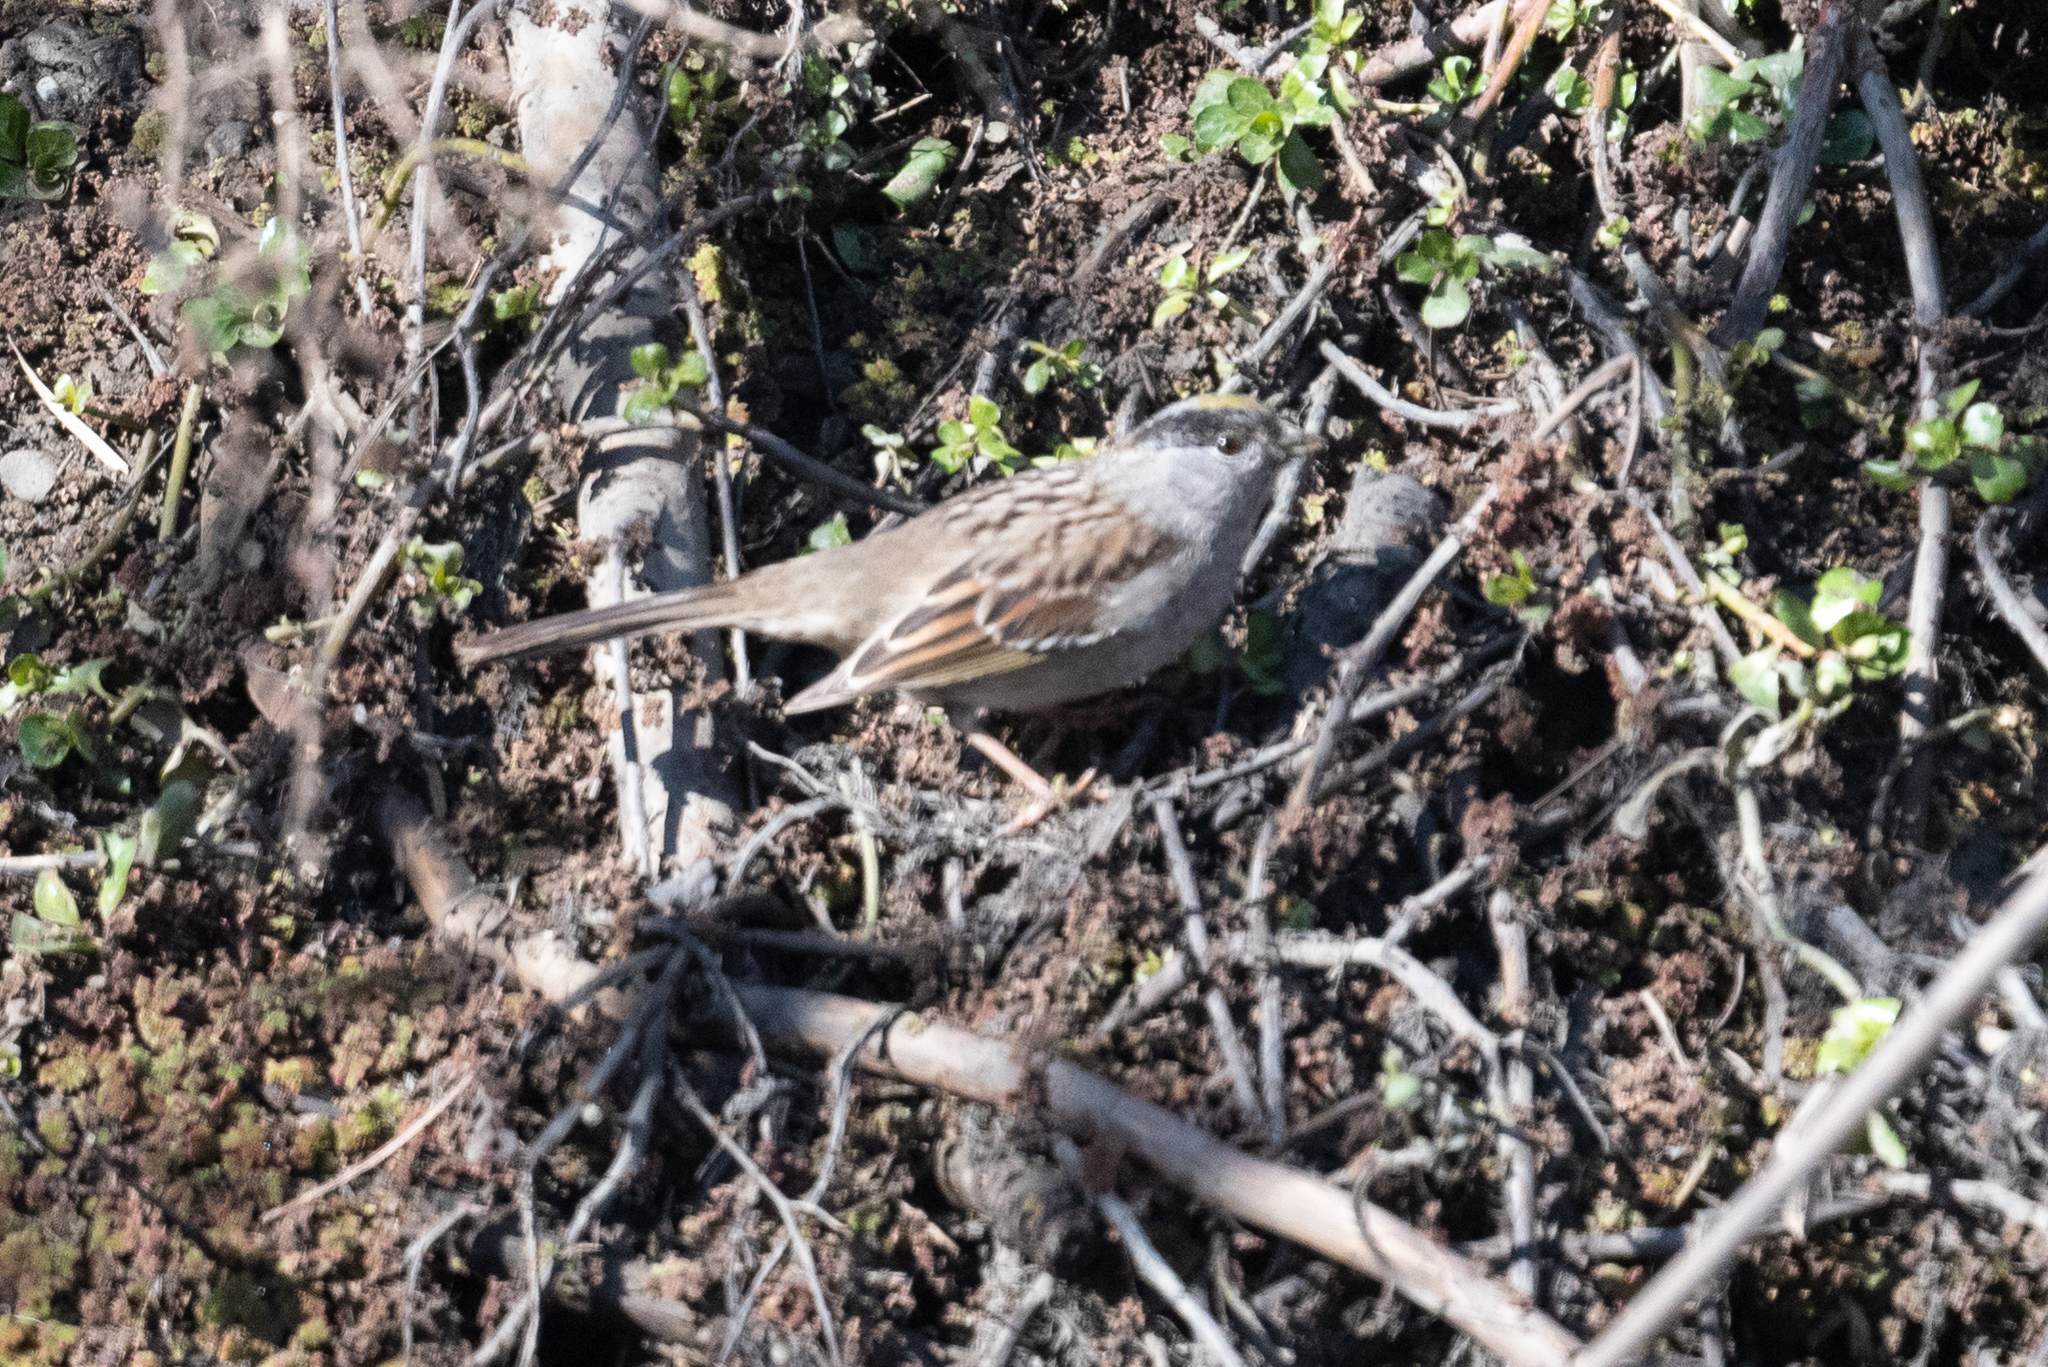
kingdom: Animalia
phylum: Chordata
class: Aves
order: Passeriformes
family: Passerellidae
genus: Zonotrichia
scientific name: Zonotrichia atricapilla
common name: Golden-crowned sparrow
